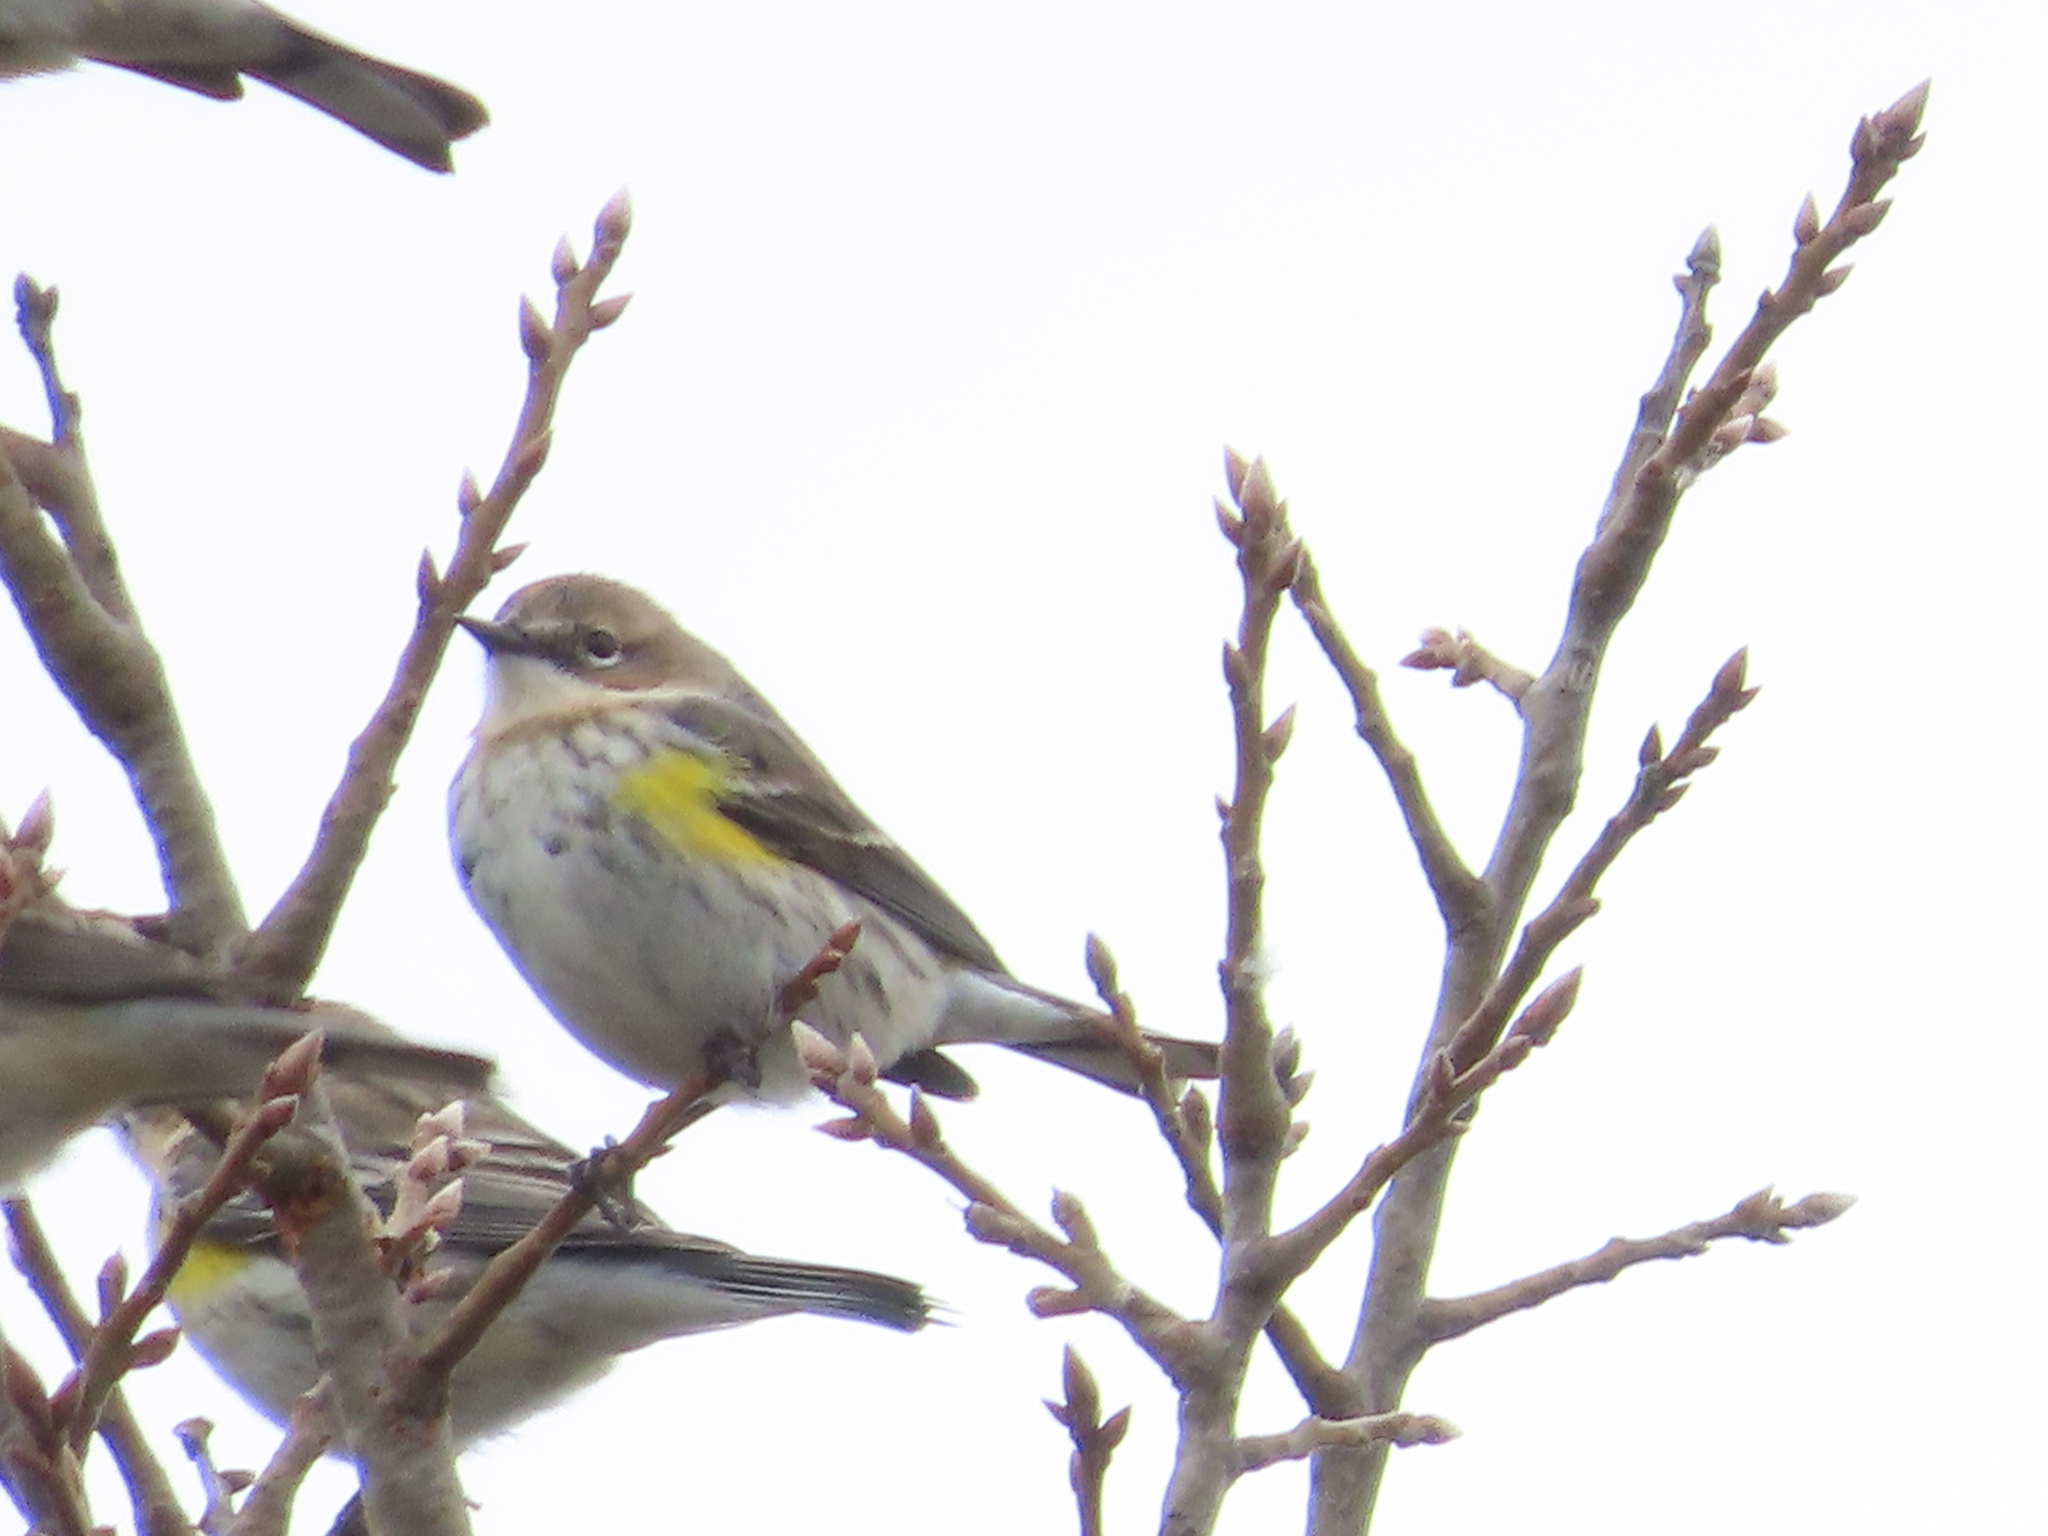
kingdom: Animalia
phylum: Chordata
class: Aves
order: Passeriformes
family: Parulidae
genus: Setophaga
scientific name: Setophaga coronata
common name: Myrtle warbler
